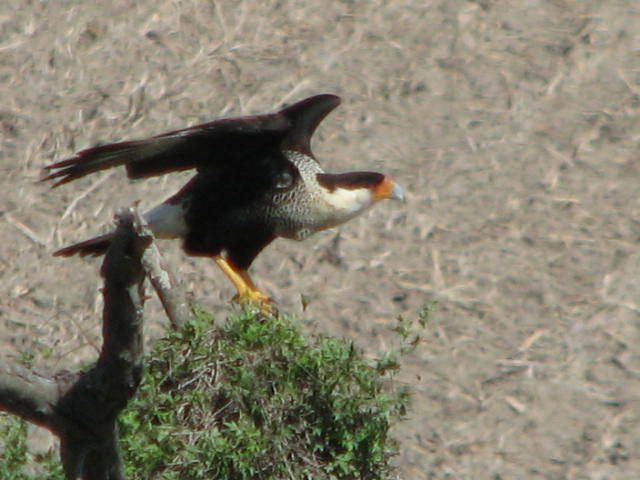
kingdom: Animalia
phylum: Chordata
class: Aves
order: Falconiformes
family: Falconidae
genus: Caracara
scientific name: Caracara plancus
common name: Southern caracara
